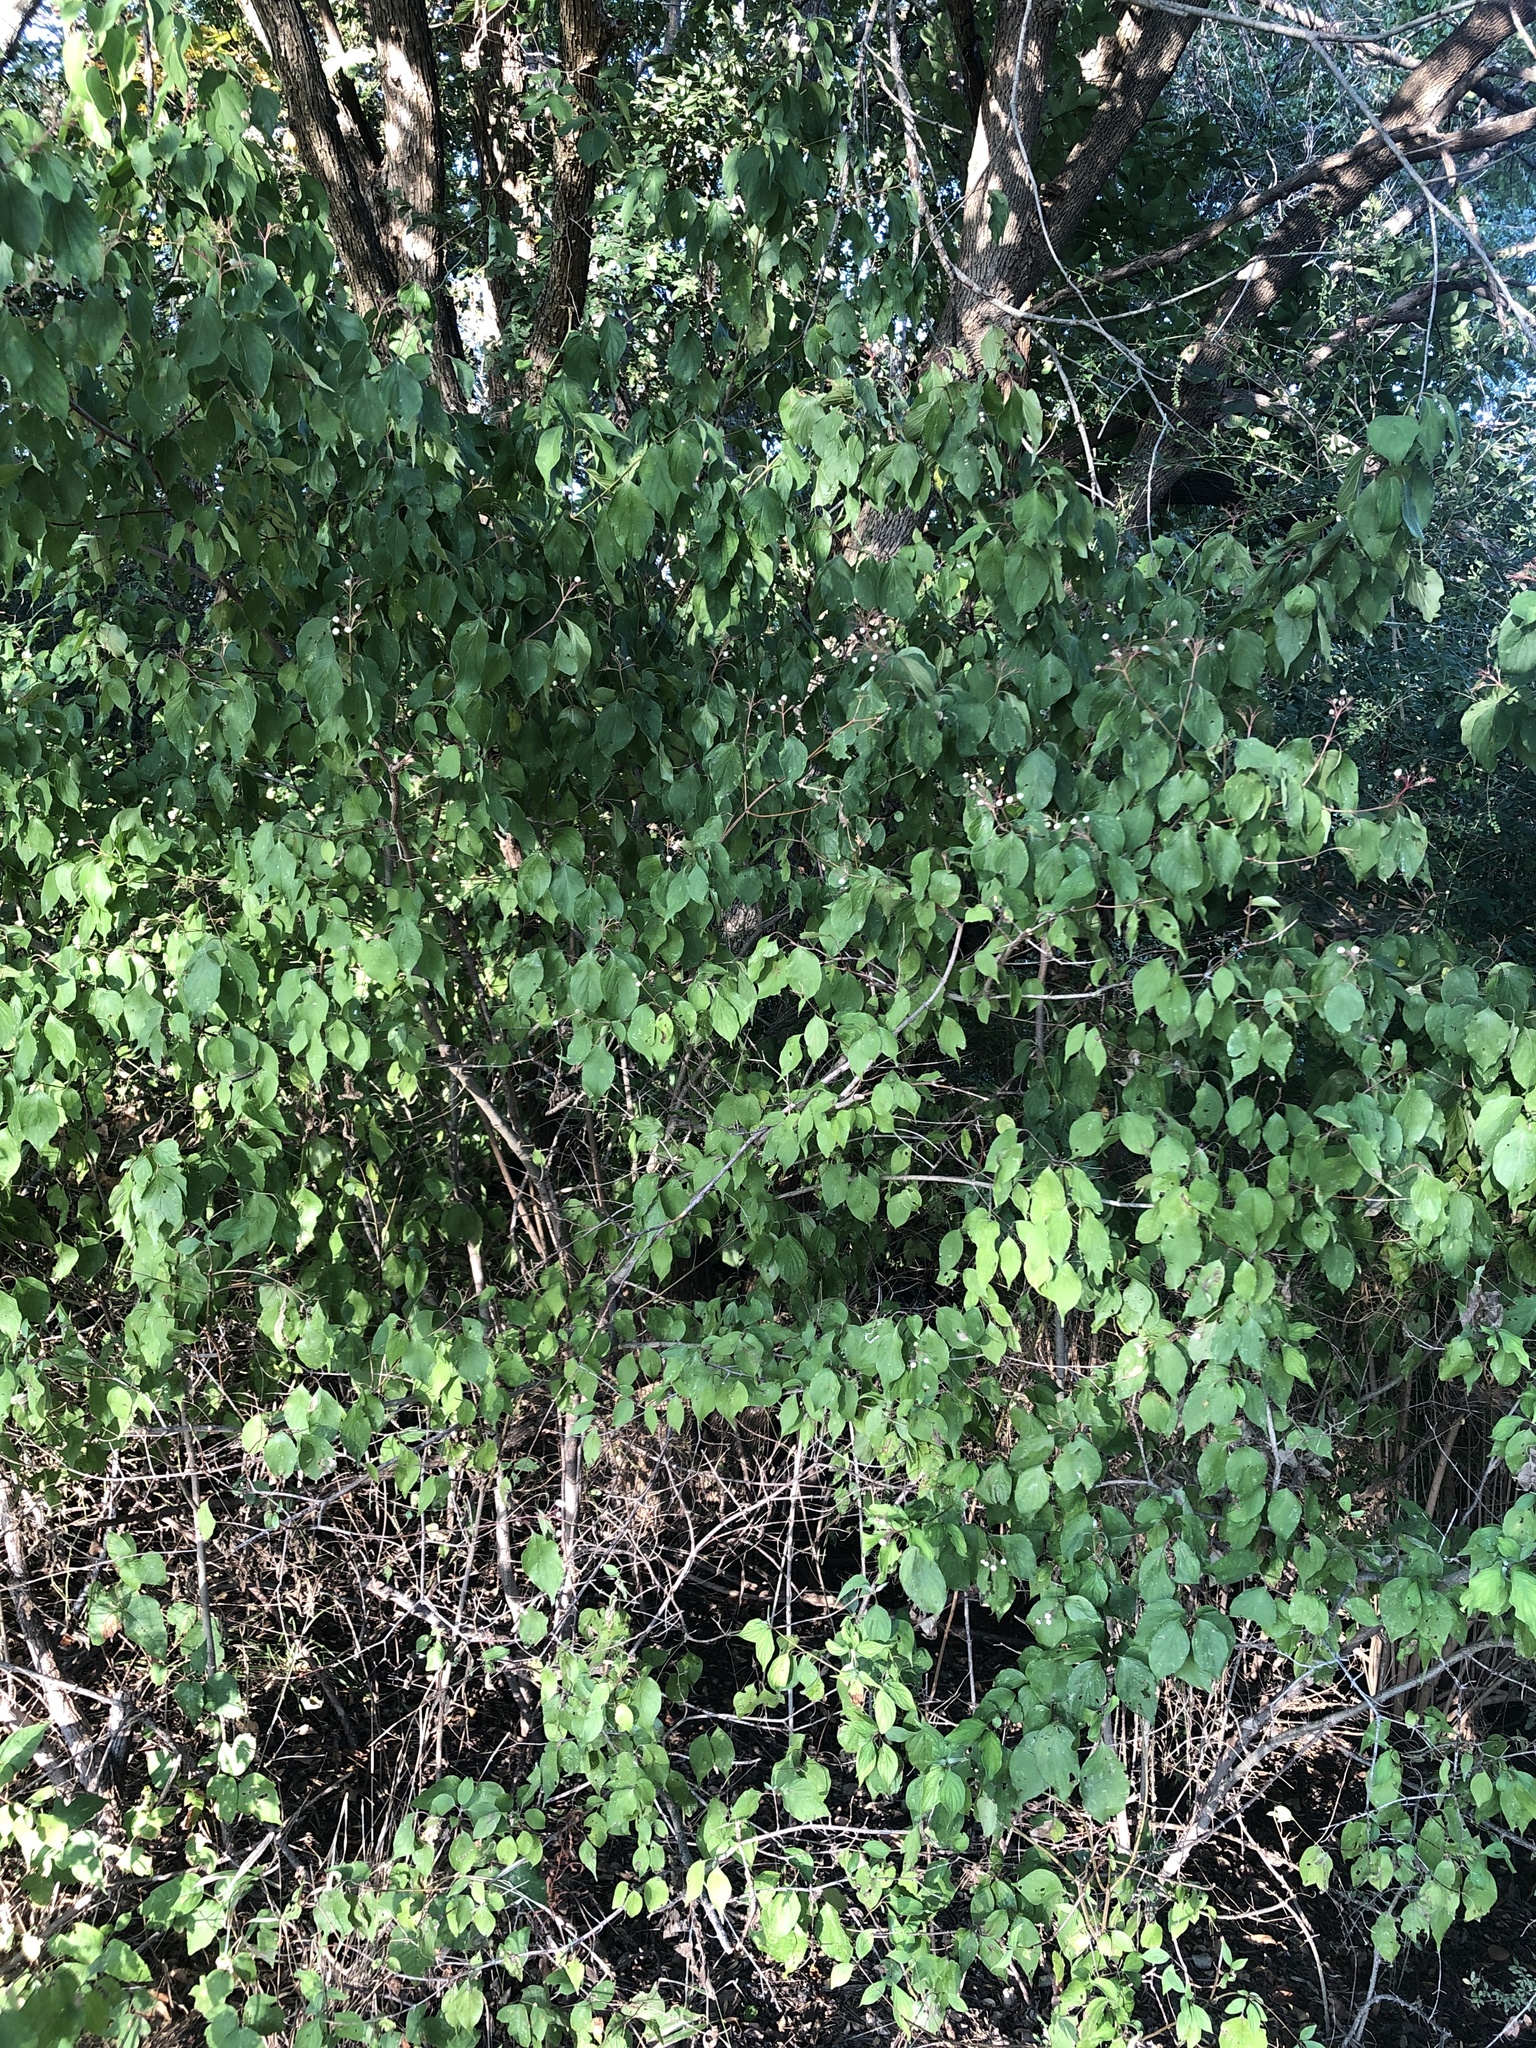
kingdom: Plantae
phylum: Tracheophyta
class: Magnoliopsida
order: Cornales
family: Cornaceae
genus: Cornus
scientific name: Cornus drummondii
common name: Rough-leaf dogwood
